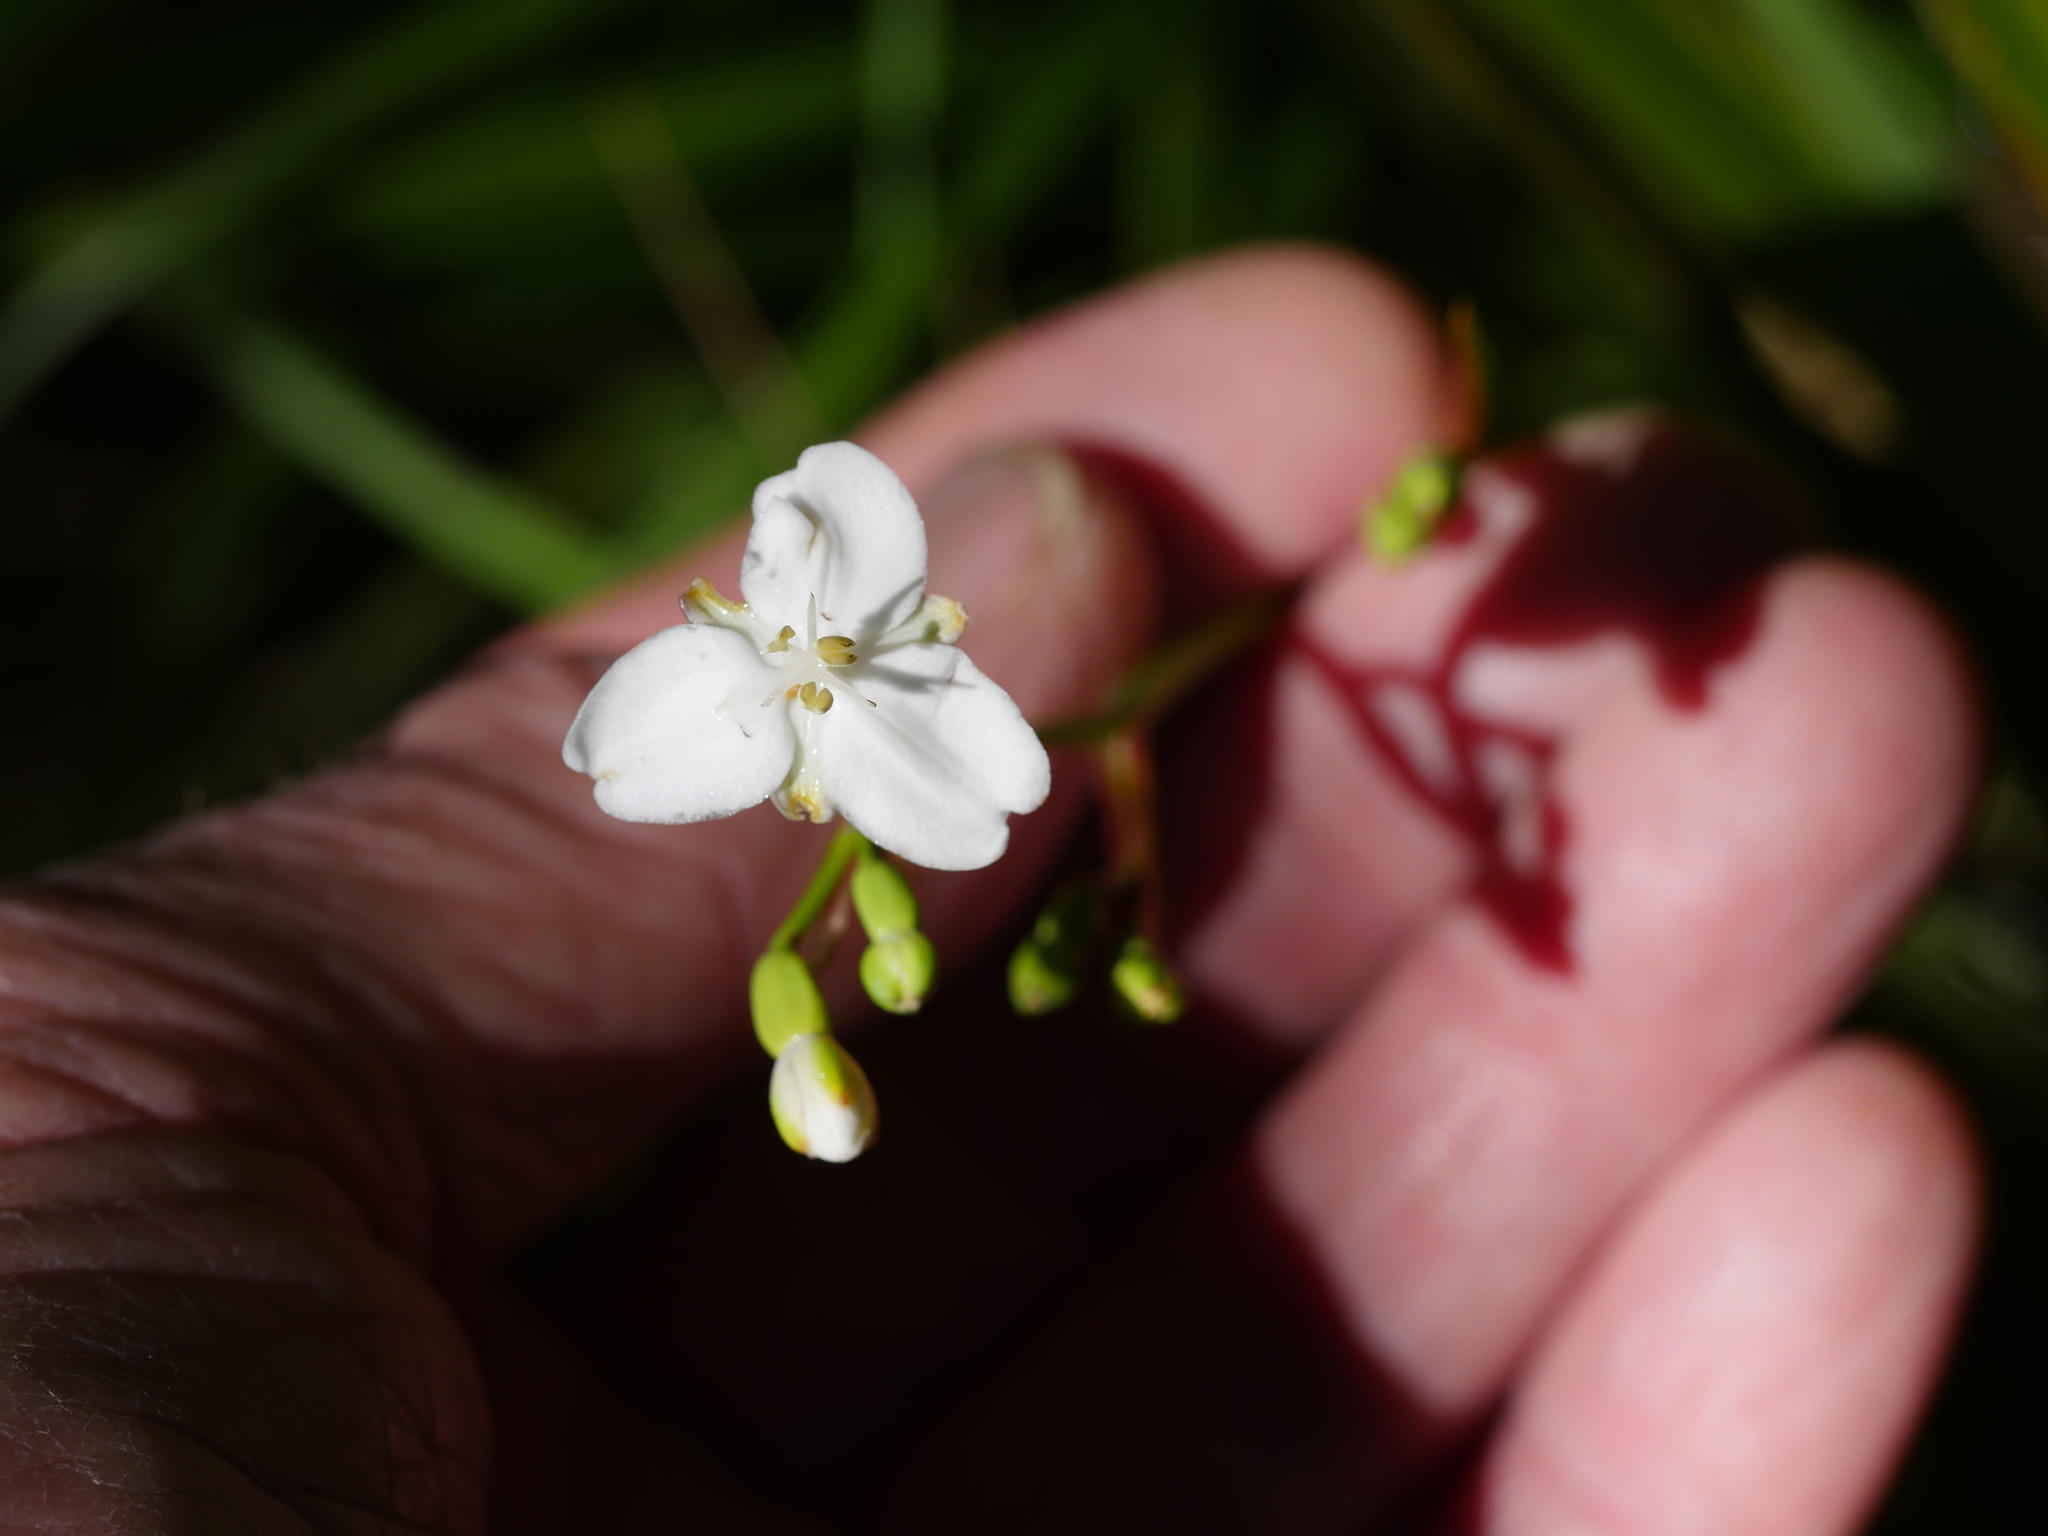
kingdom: Plantae
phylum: Tracheophyta
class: Liliopsida
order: Asparagales
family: Iridaceae
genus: Libertia
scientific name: Libertia ixioides
